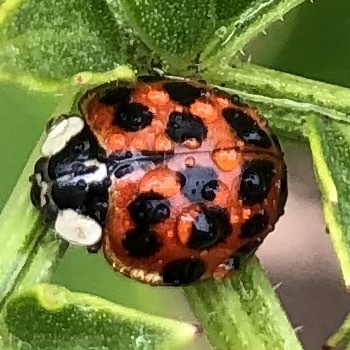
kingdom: Animalia
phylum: Arthropoda
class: Insecta
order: Coleoptera
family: Coccinellidae
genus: Harmonia
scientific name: Harmonia axyridis
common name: Harlequin ladybird
